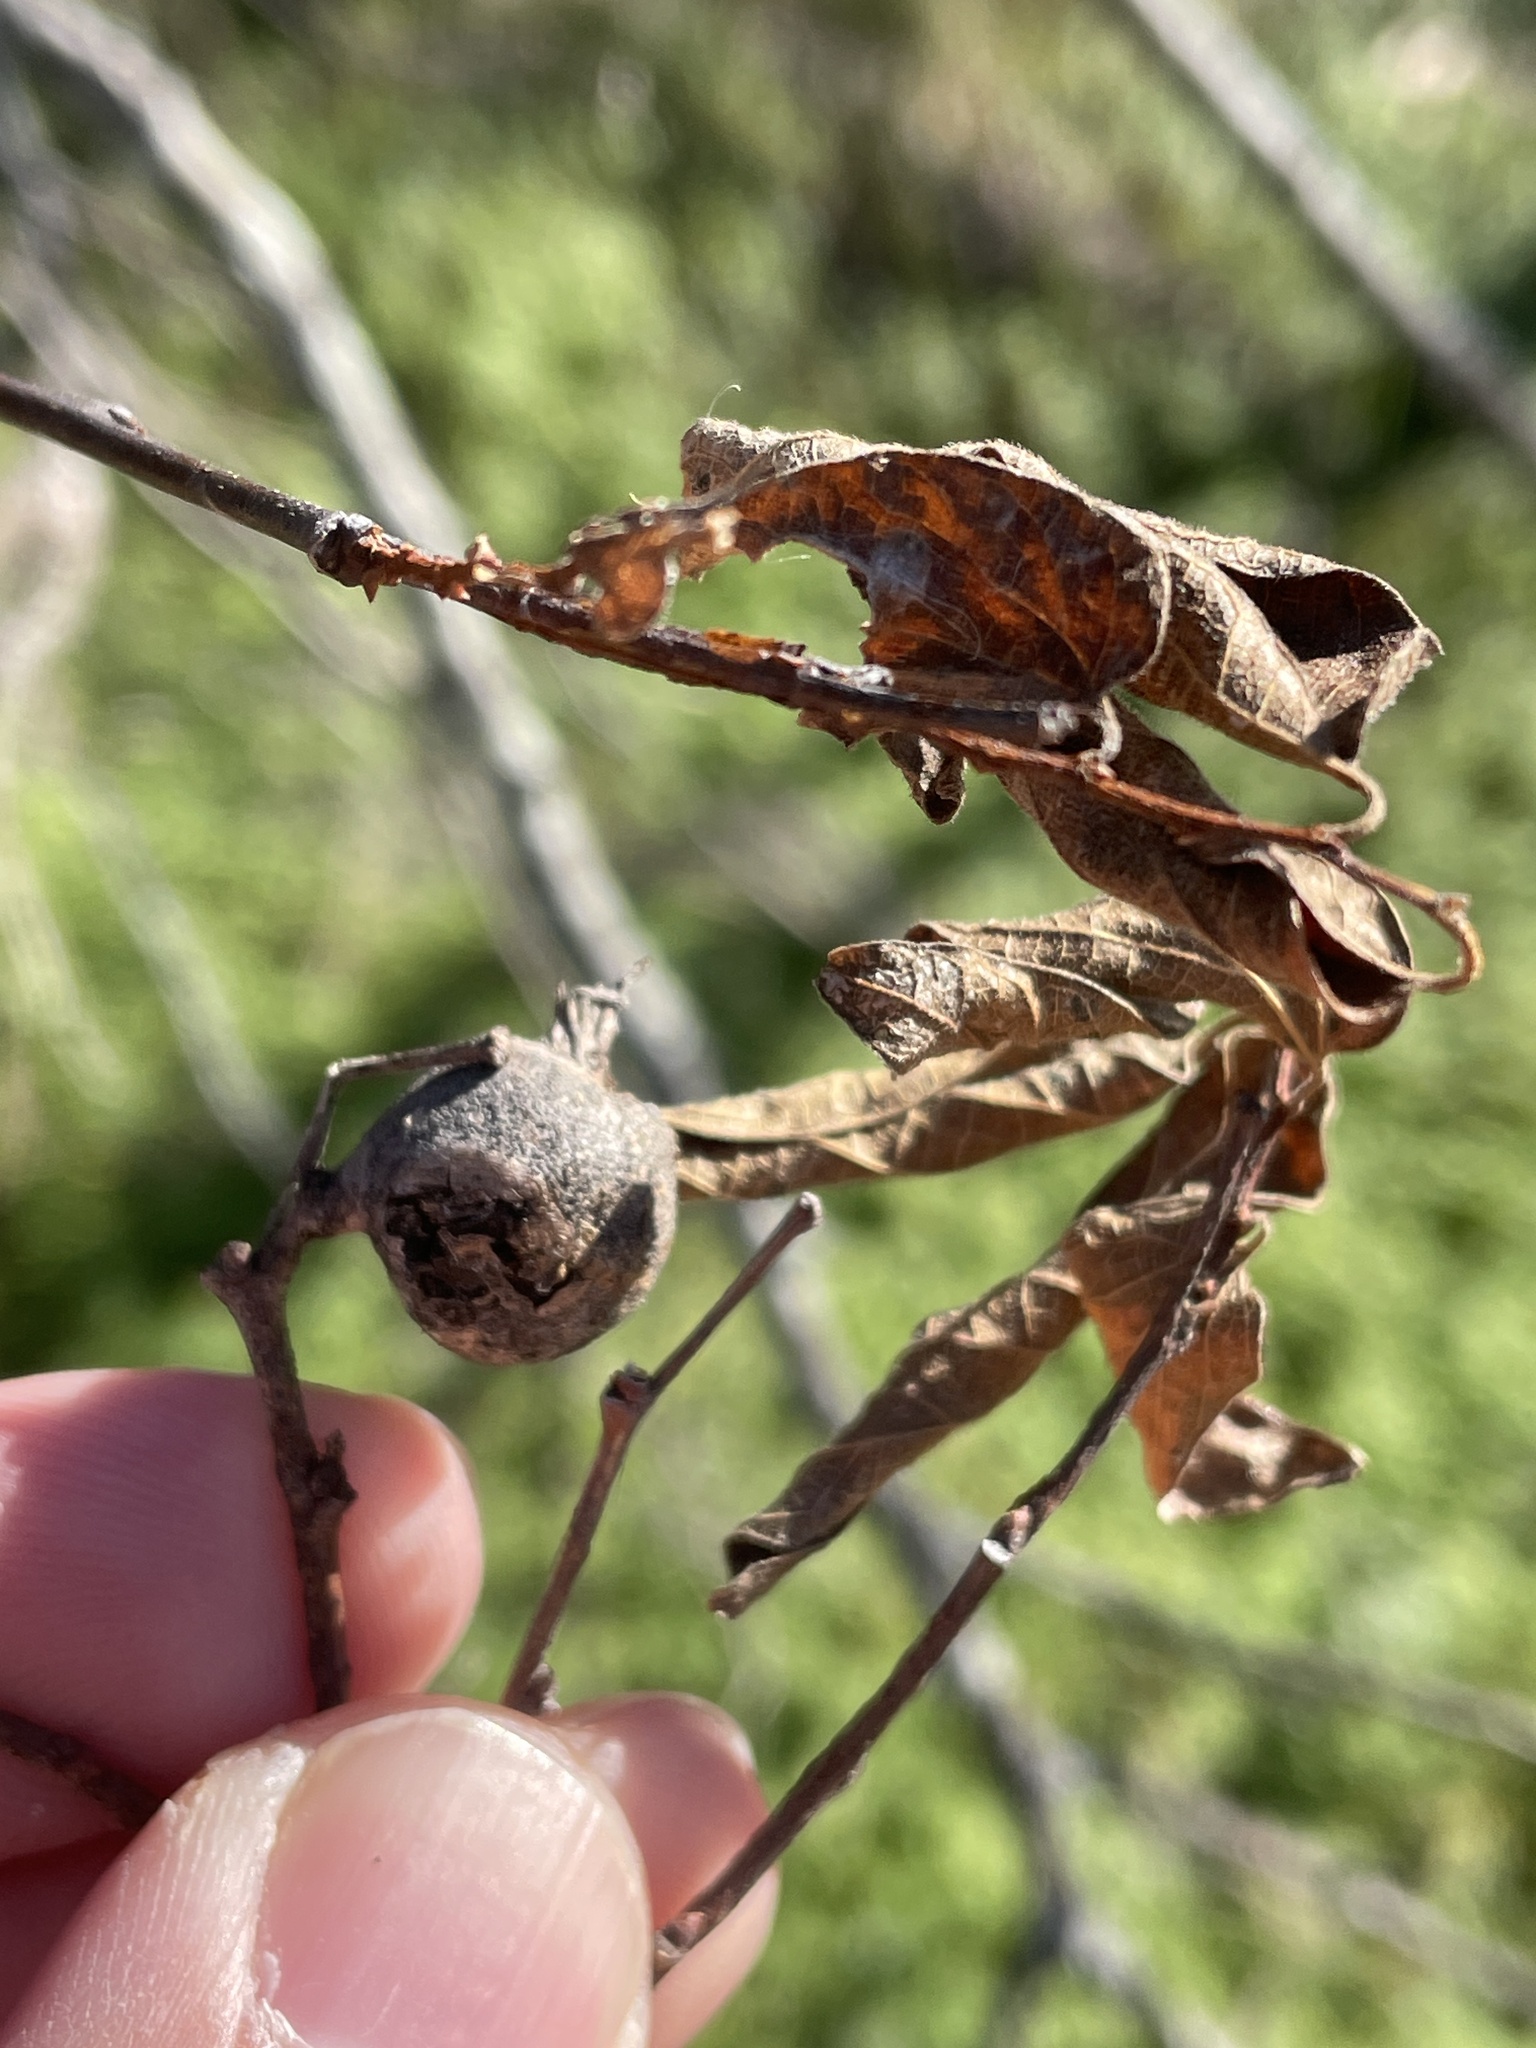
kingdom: Animalia
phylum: Arthropoda
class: Insecta
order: Hemiptera
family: Aphalaridae
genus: Pachypsylla
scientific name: Pachypsylla venusta
